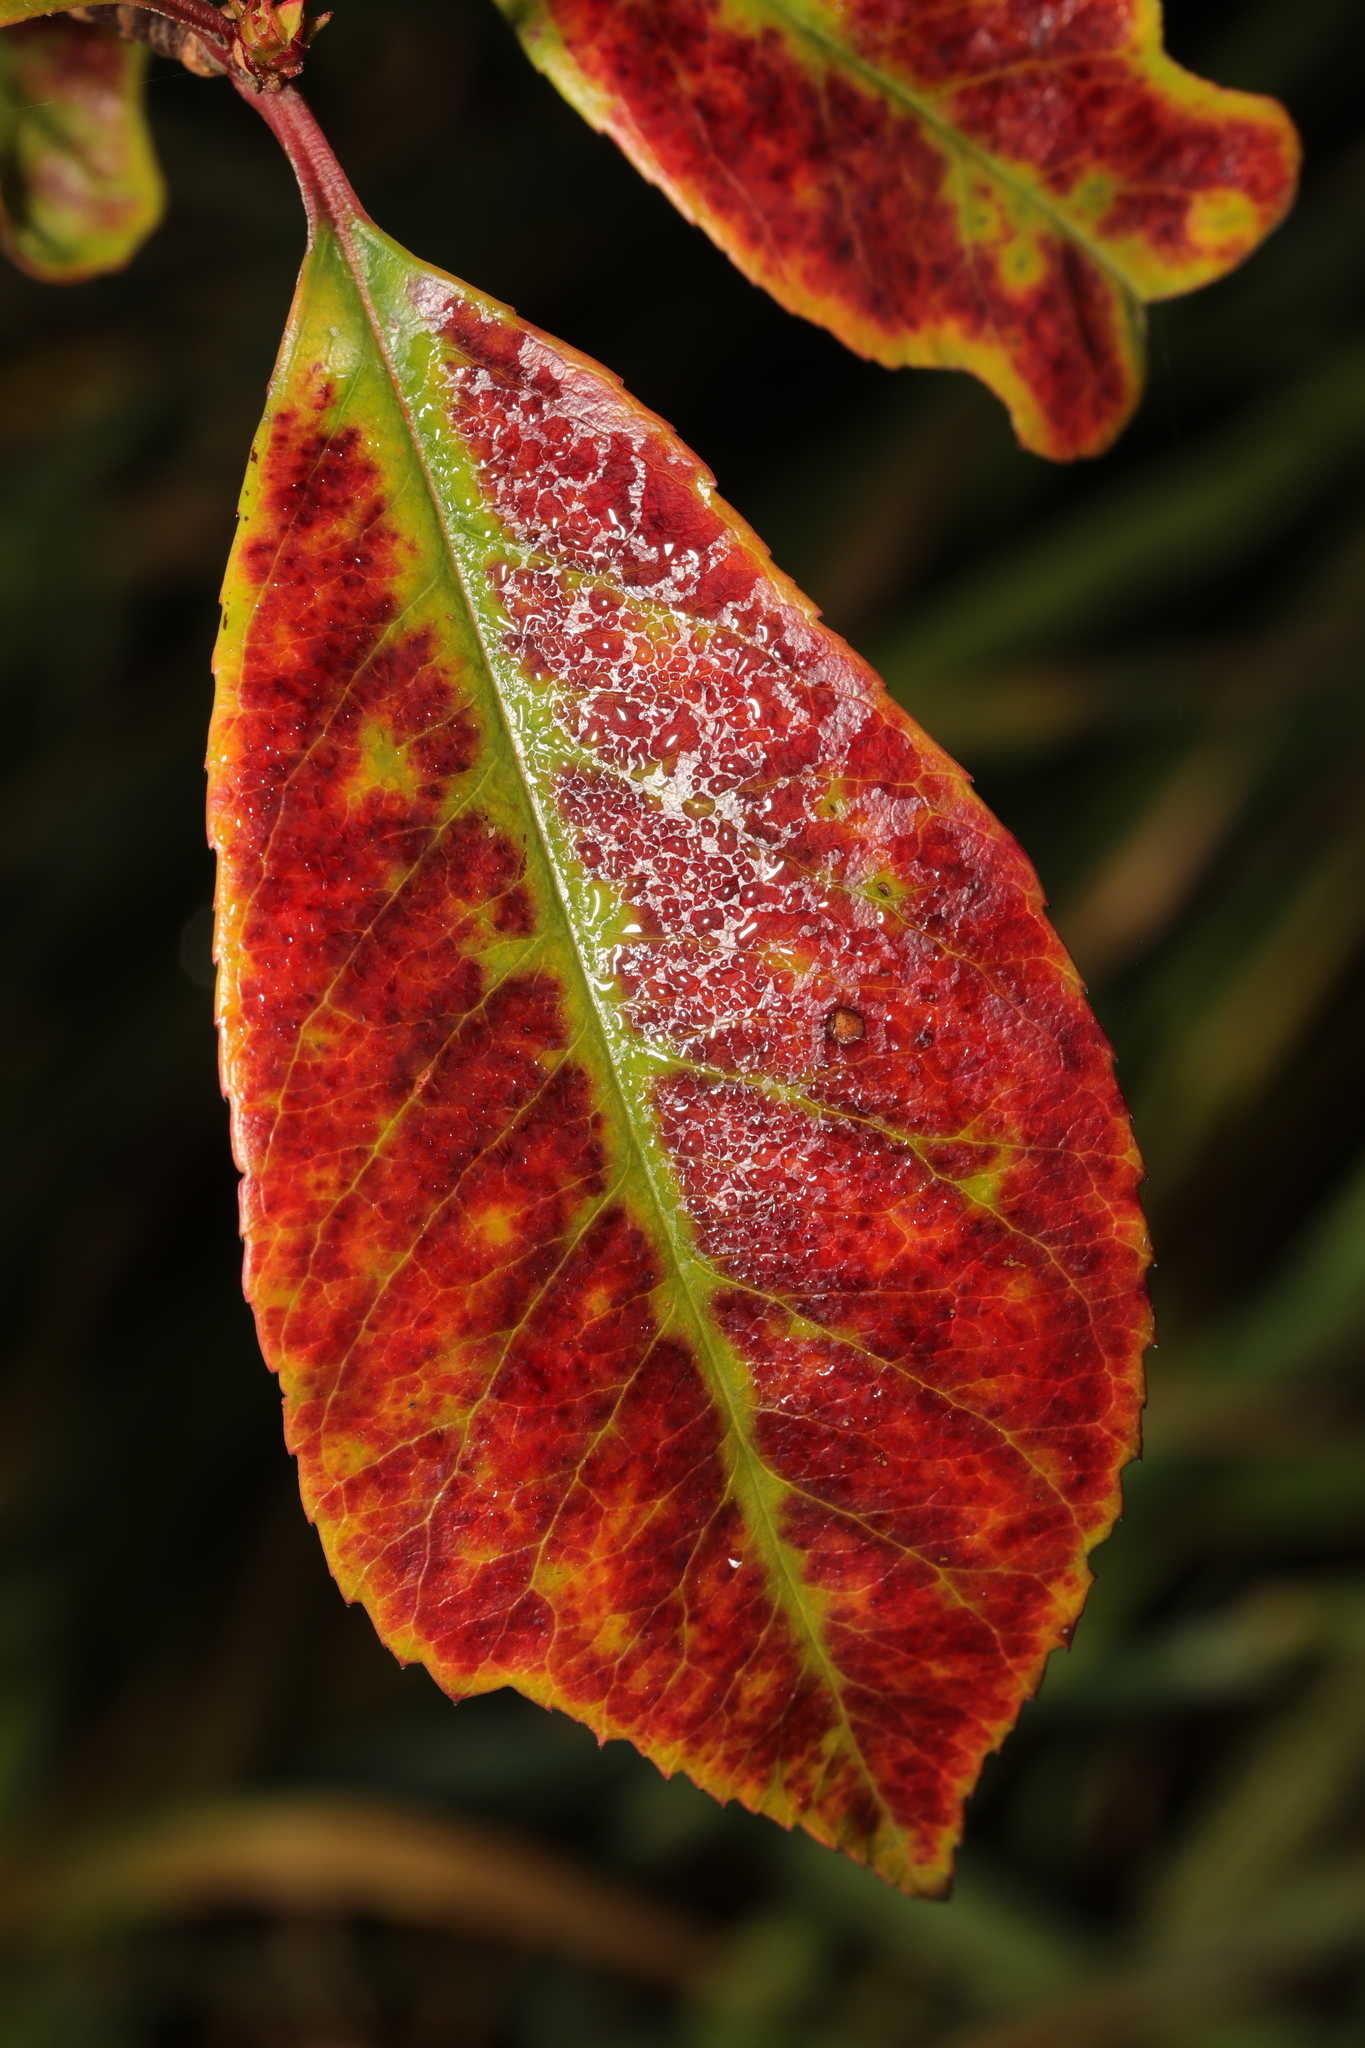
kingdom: Plantae
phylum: Tracheophyta
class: Magnoliopsida
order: Rosales
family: Rosaceae
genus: Photinia
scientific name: Photinia fraseri
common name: Fraser's photinia
